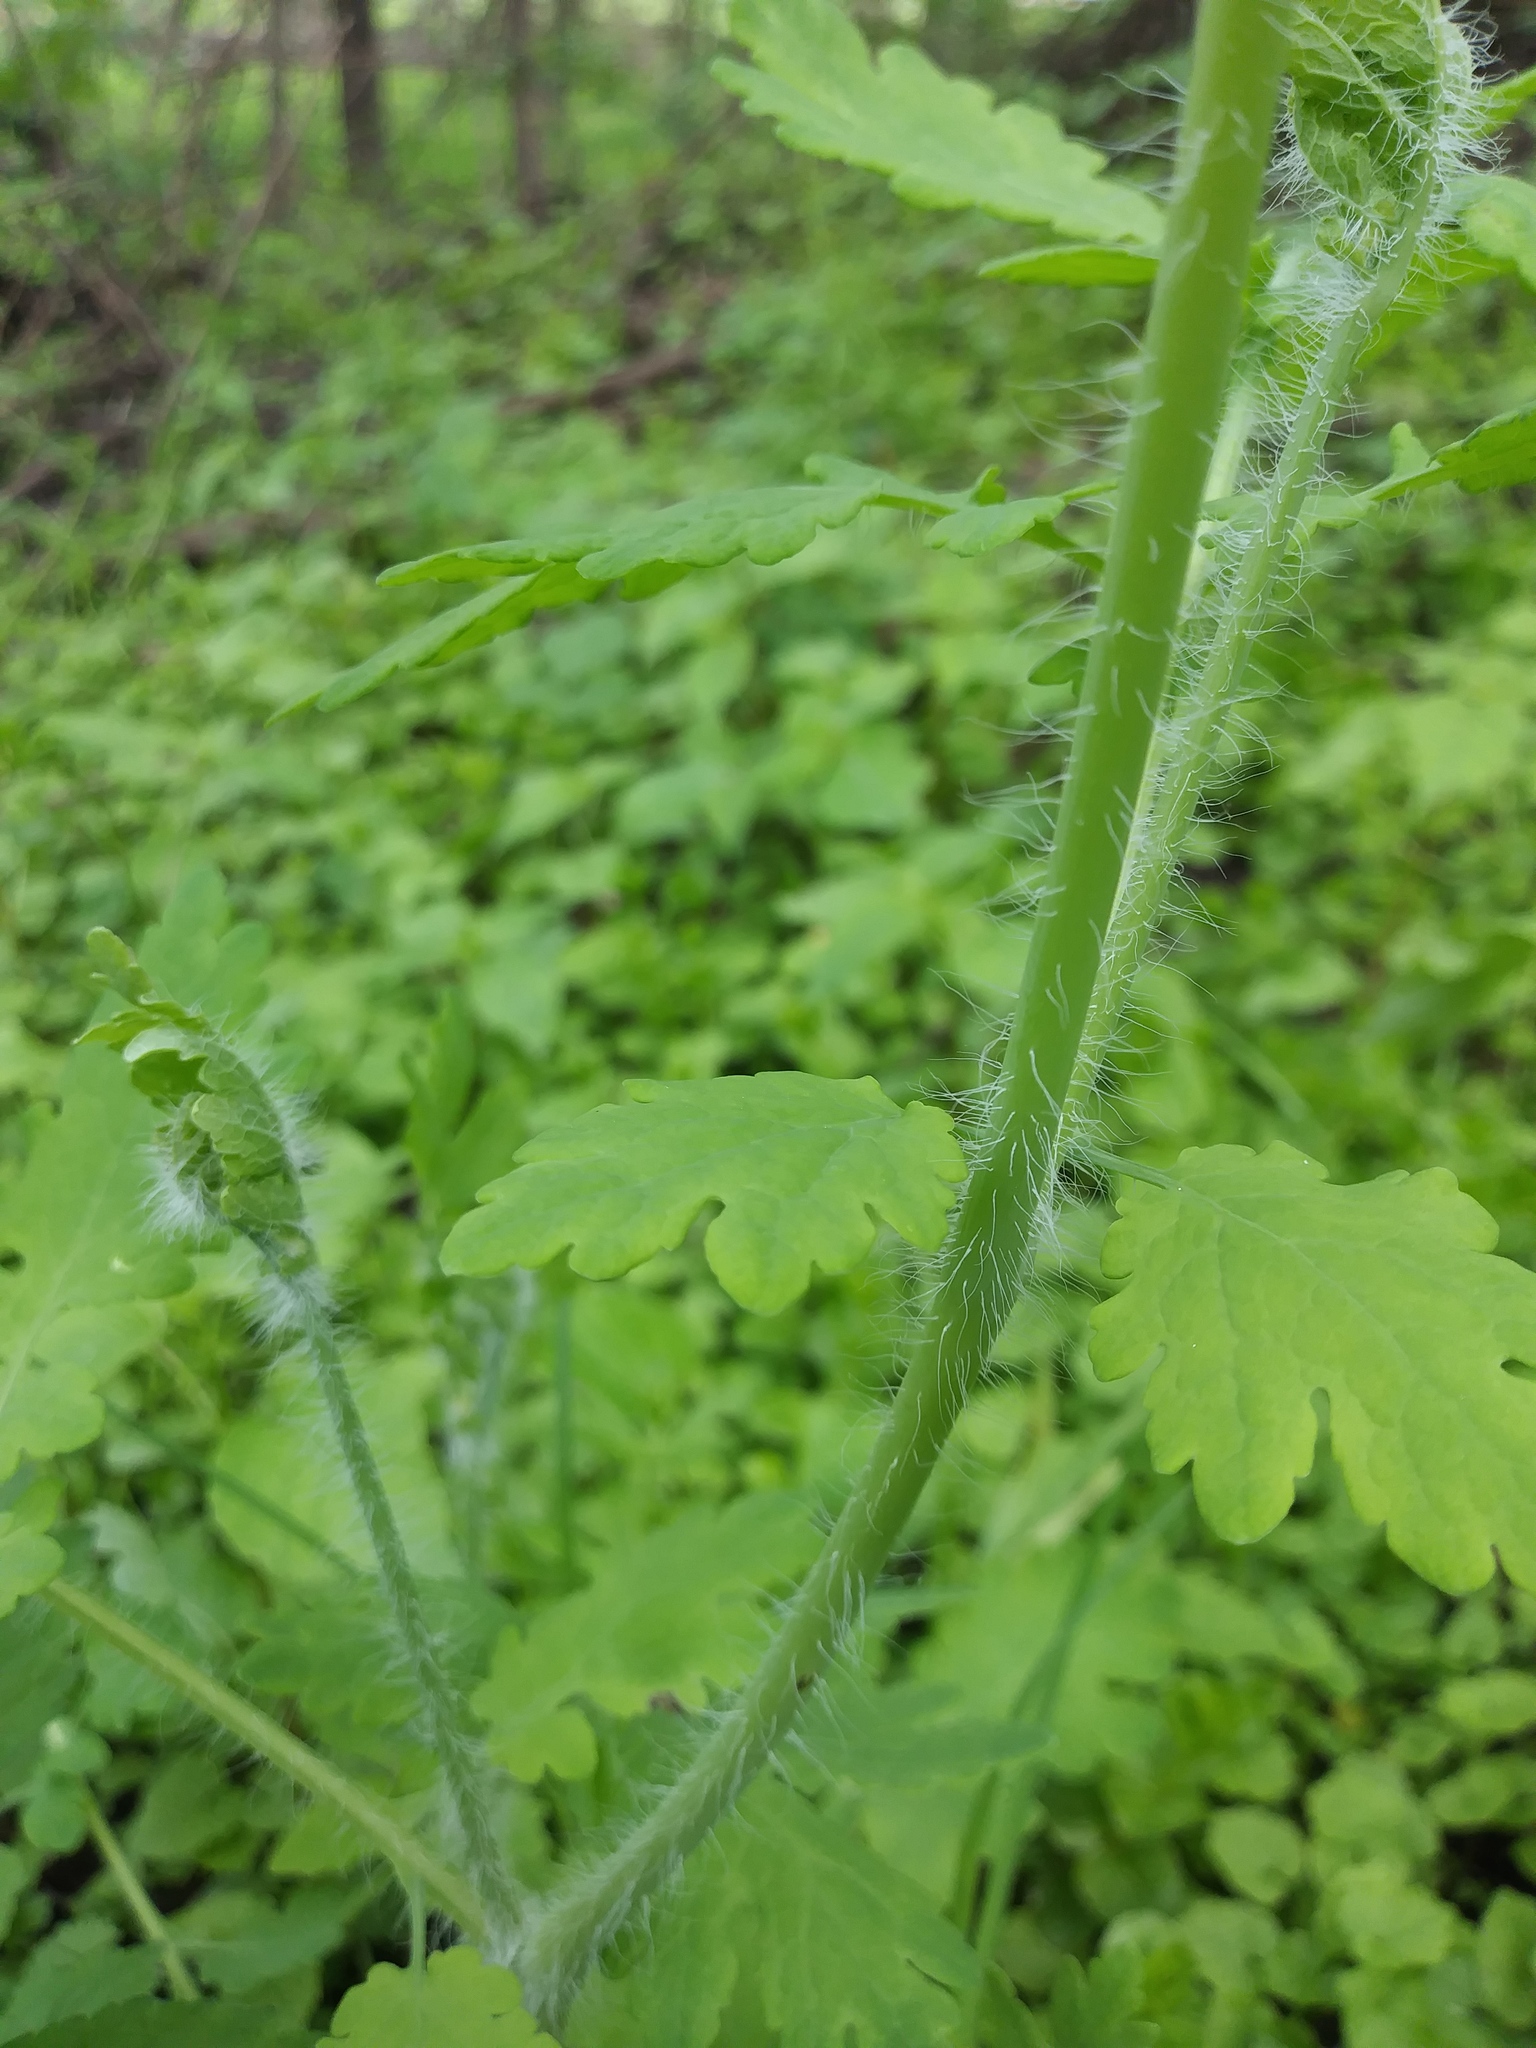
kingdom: Plantae
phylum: Tracheophyta
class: Magnoliopsida
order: Ranunculales
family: Papaveraceae
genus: Chelidonium
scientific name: Chelidonium majus
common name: Greater celandine
